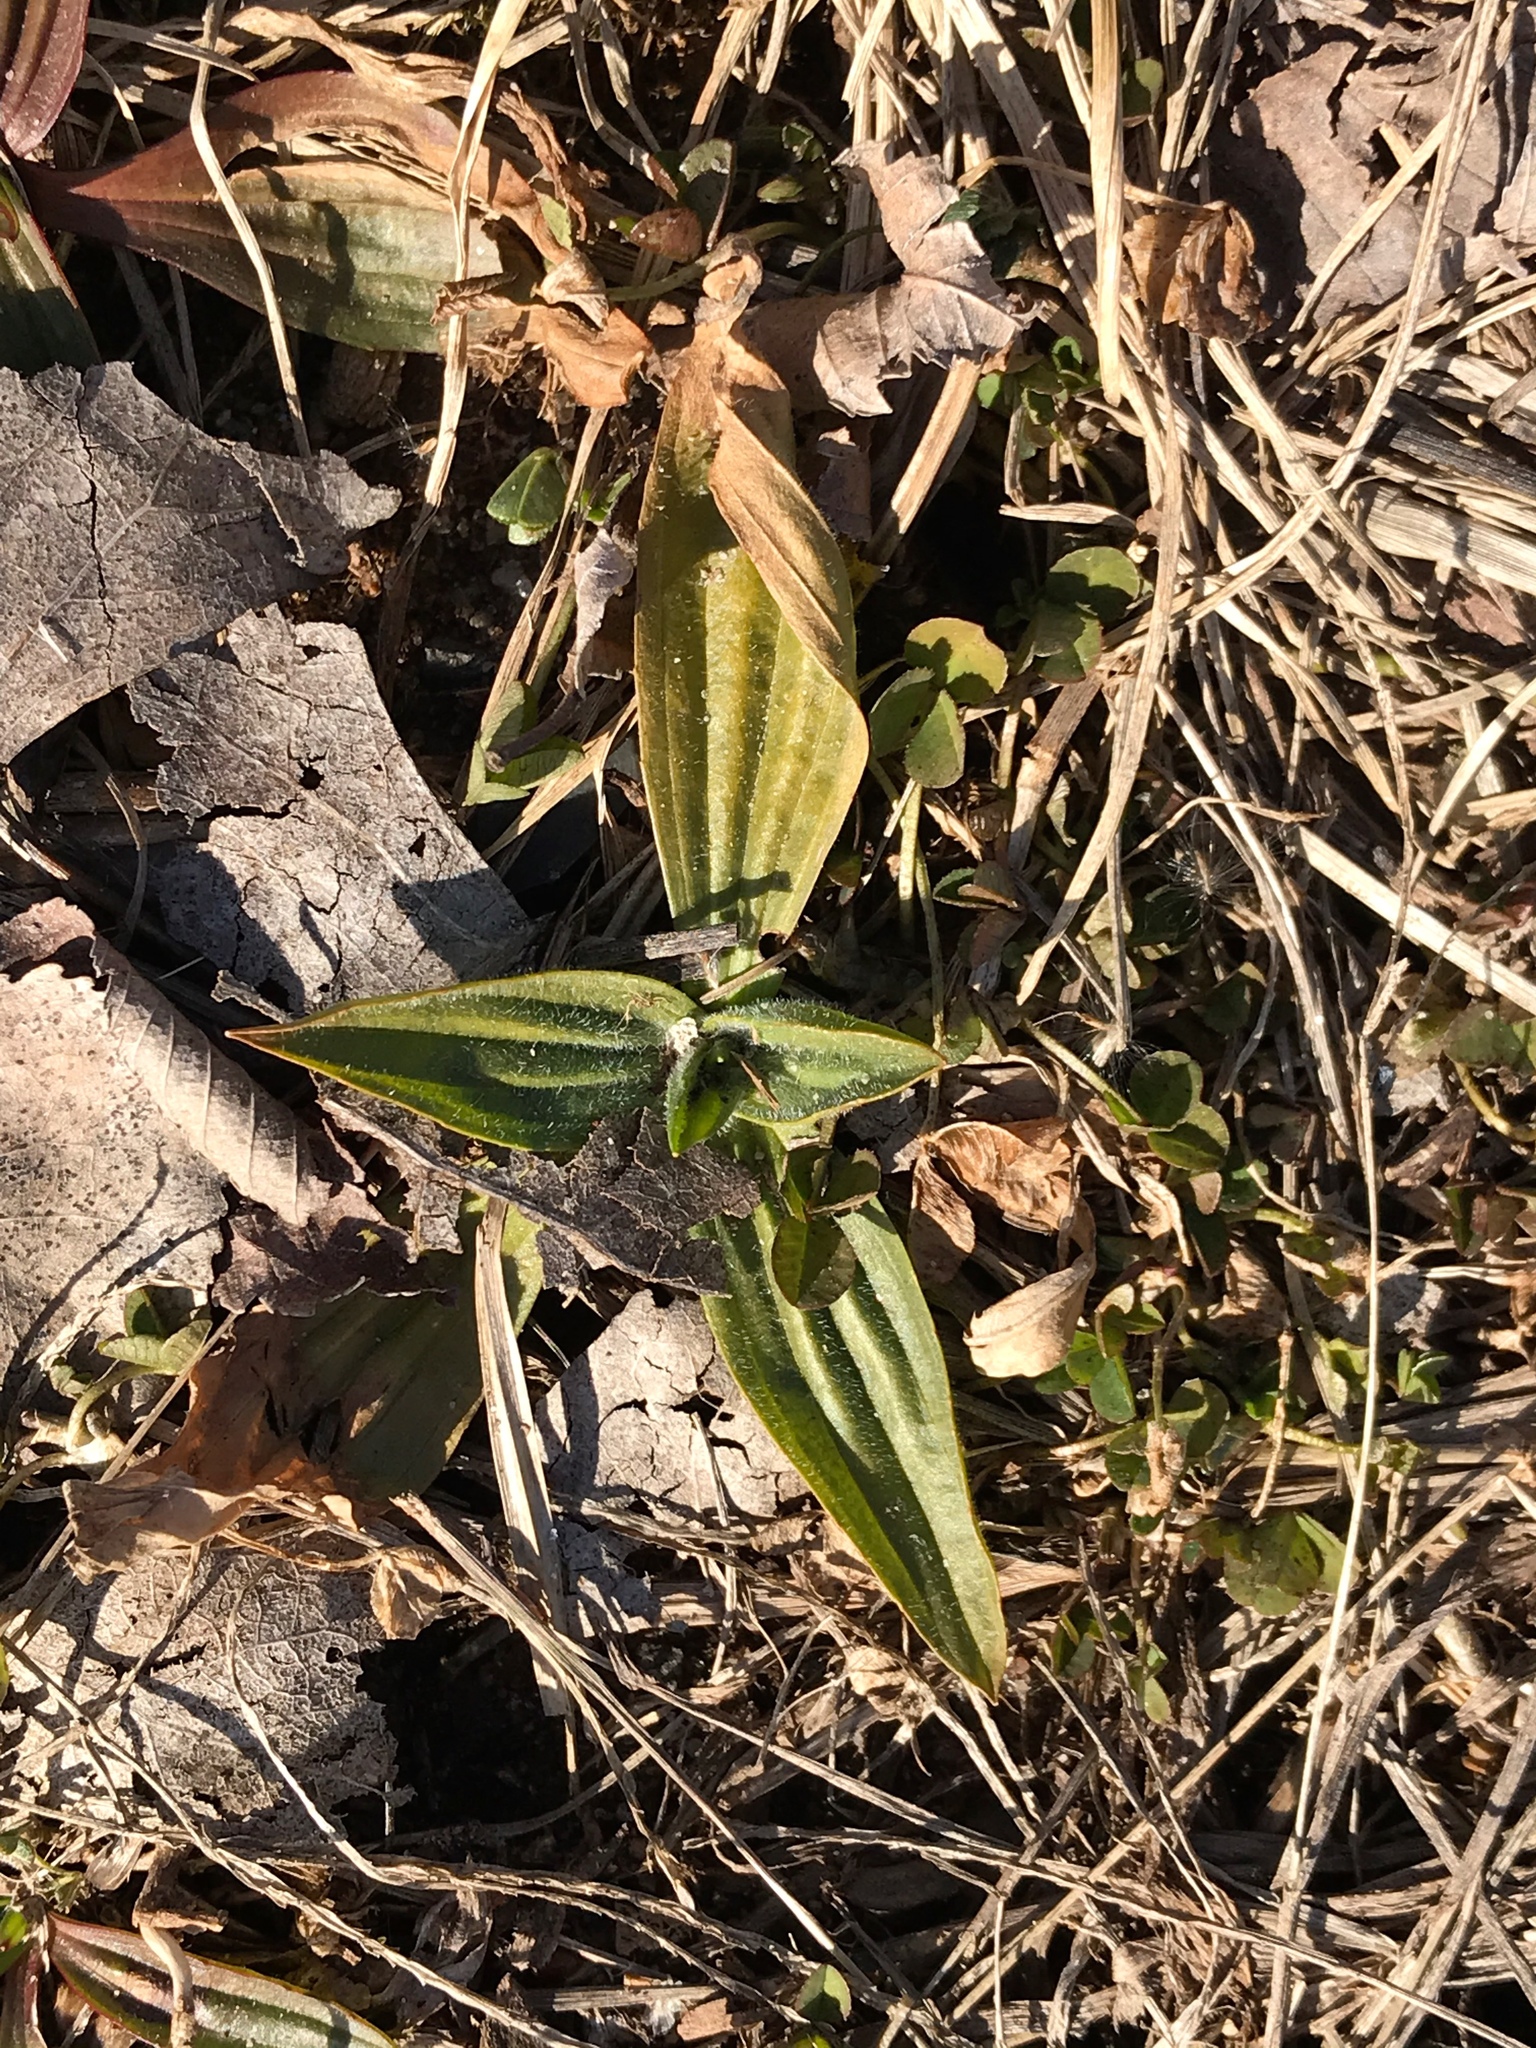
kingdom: Plantae
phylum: Tracheophyta
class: Magnoliopsida
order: Lamiales
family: Plantaginaceae
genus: Plantago
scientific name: Plantago lanceolata
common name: Ribwort plantain
